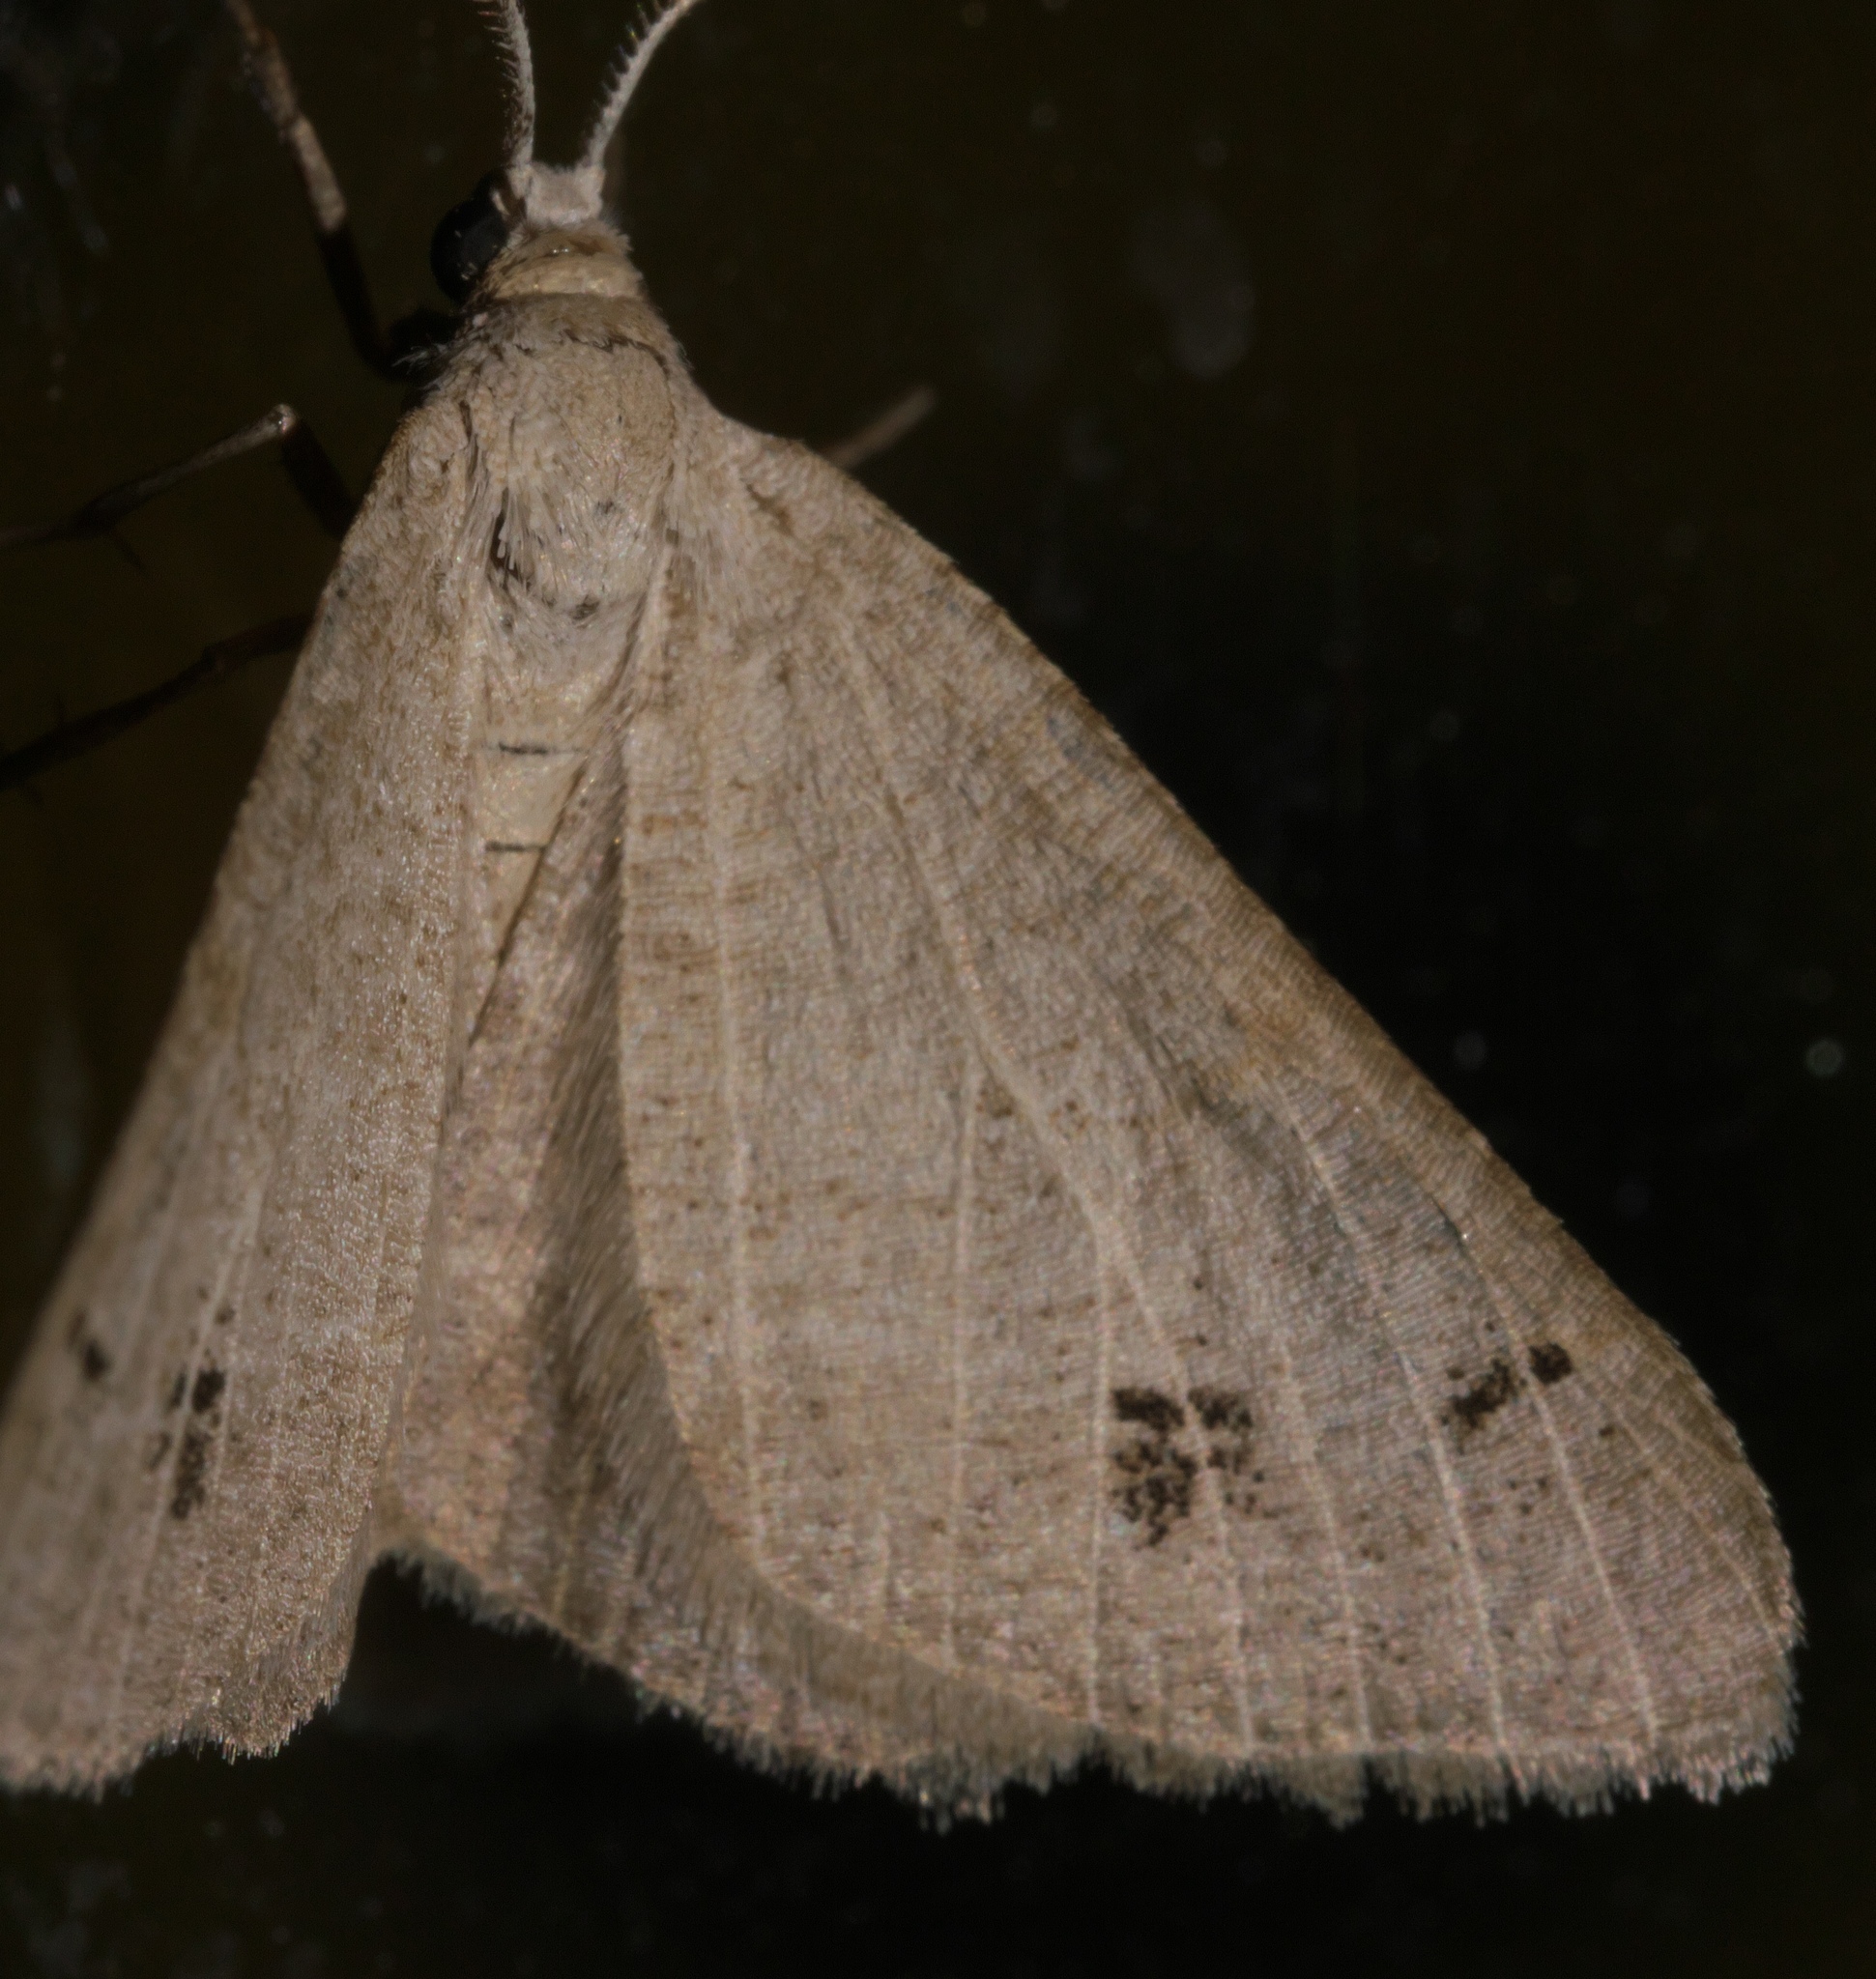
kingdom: Animalia
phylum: Arthropoda
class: Insecta
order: Lepidoptera
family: Geometridae
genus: Isturgia
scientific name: Isturgia dislocaria
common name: Pale-viened enconista
